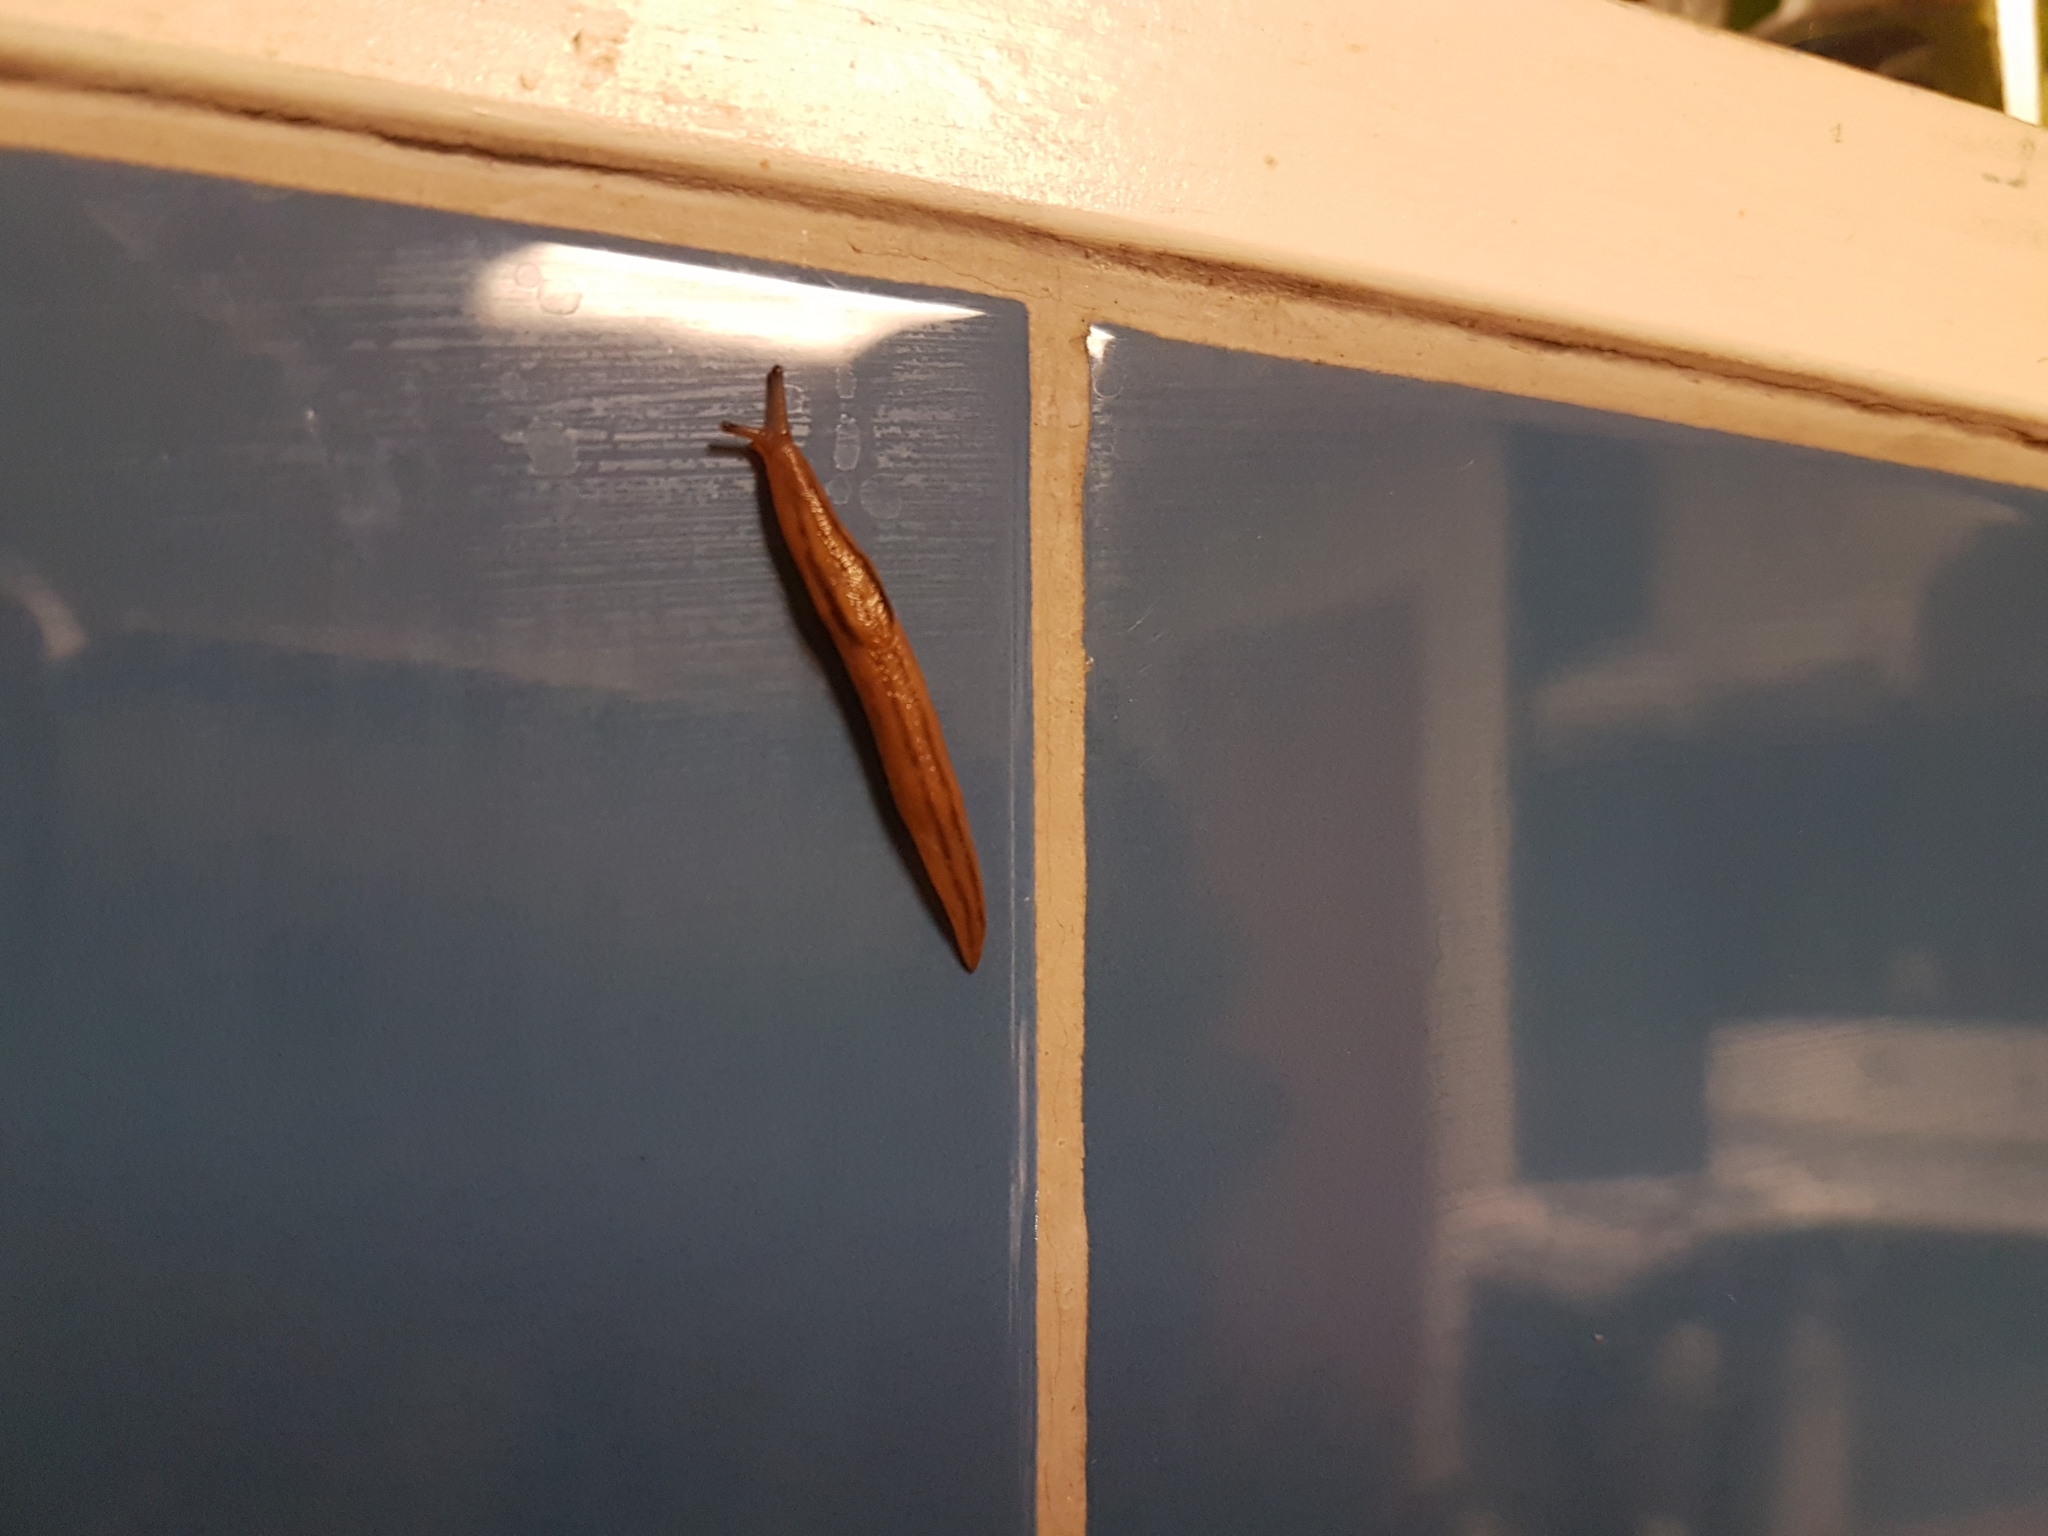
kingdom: Animalia
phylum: Mollusca
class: Gastropoda
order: Stylommatophora
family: Limacidae
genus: Ambigolimax
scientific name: Ambigolimax
